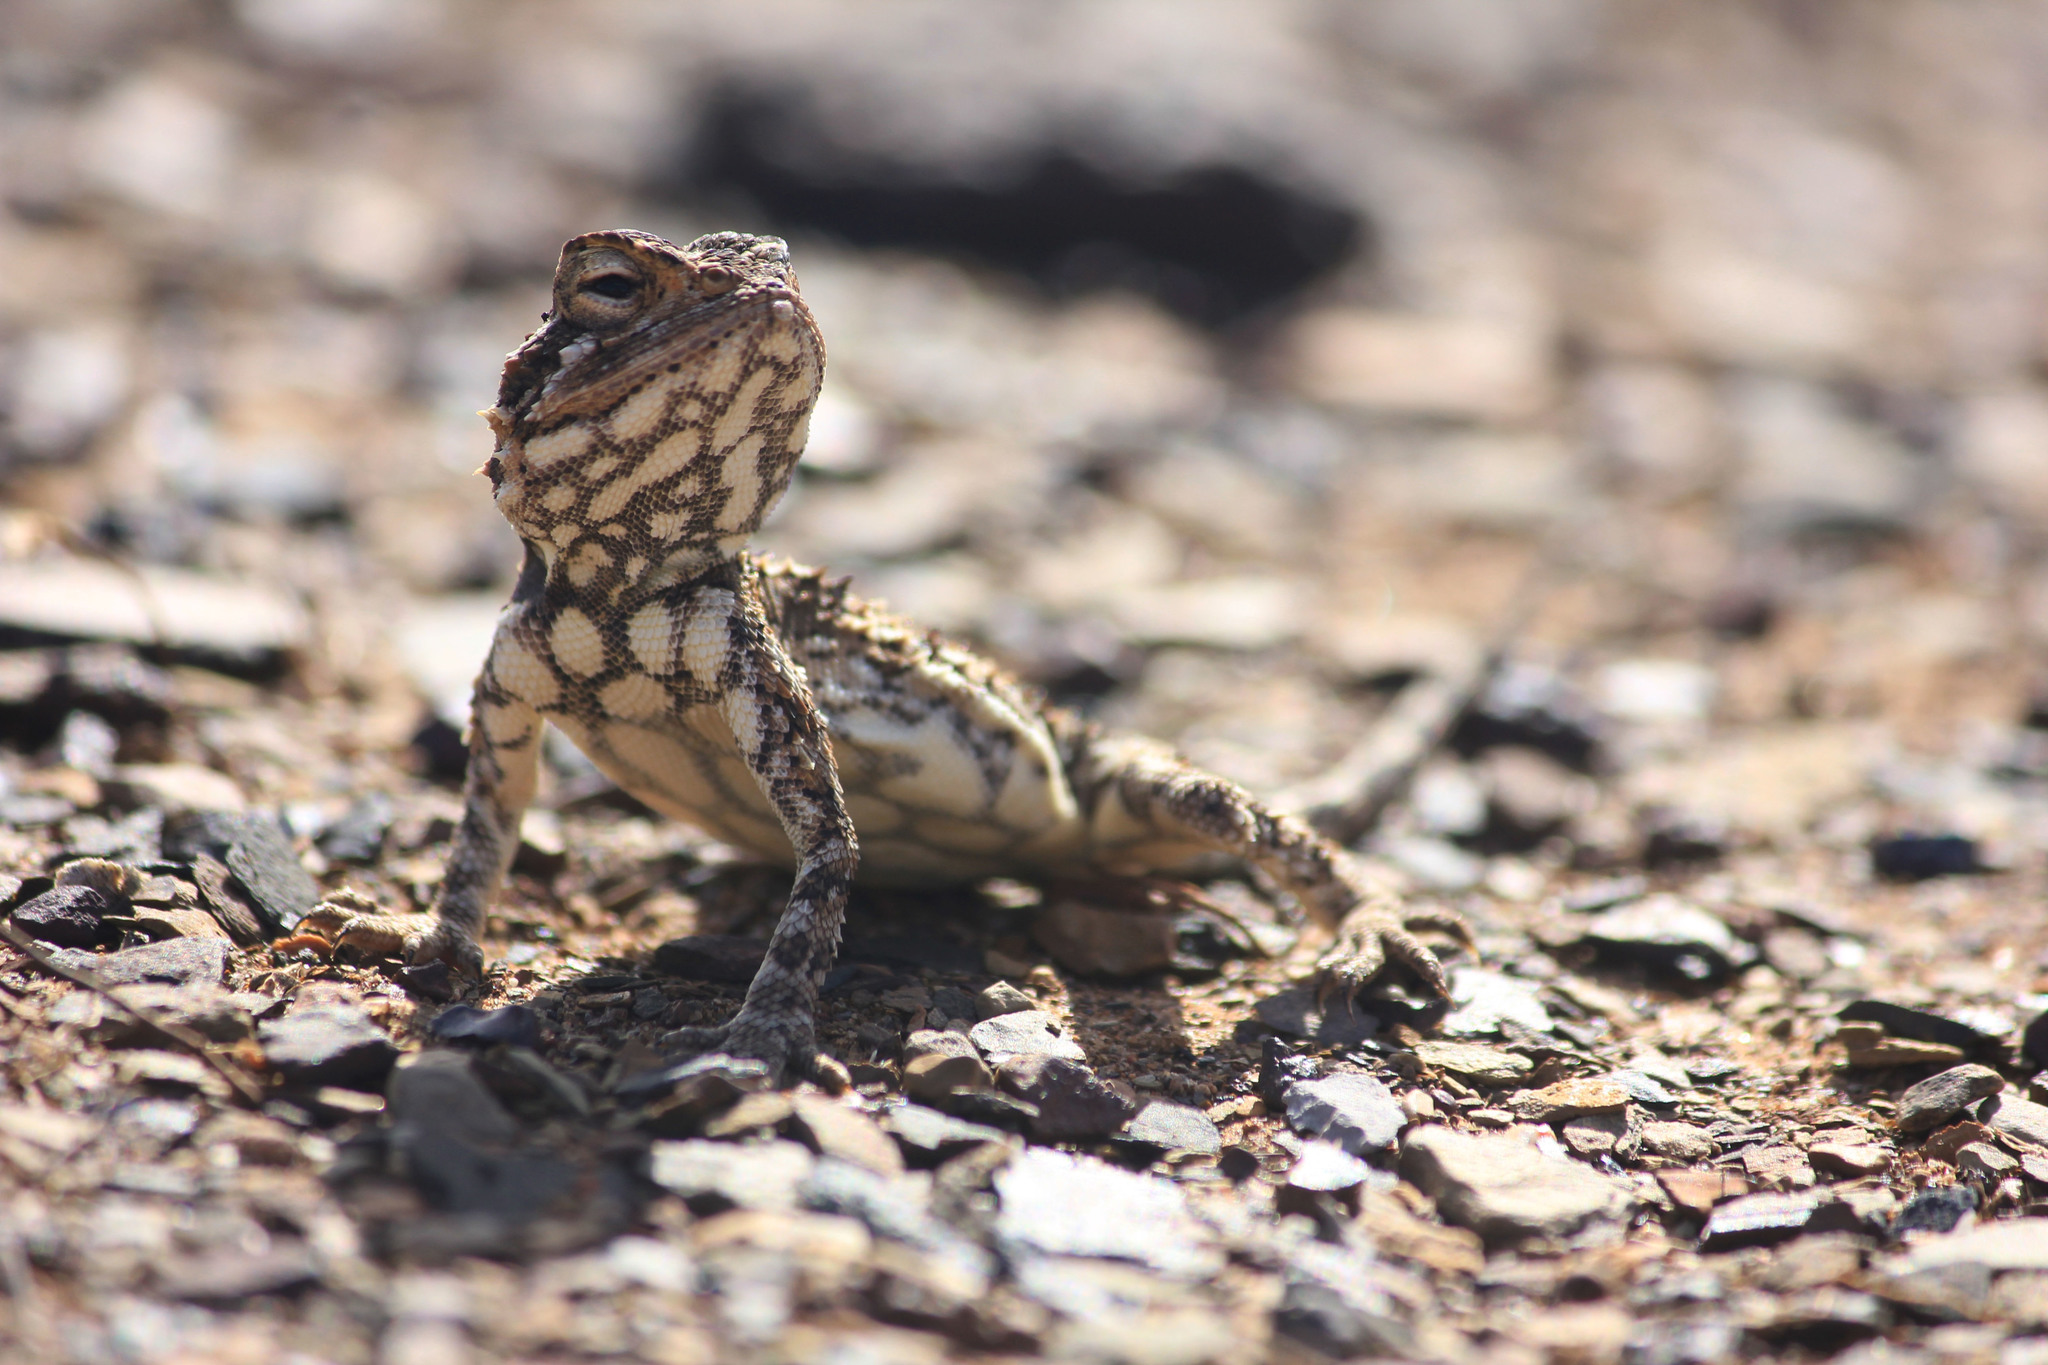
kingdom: Animalia
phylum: Chordata
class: Squamata
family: Agamidae
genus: Agama
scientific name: Agama hispida
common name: Common spiny agama
